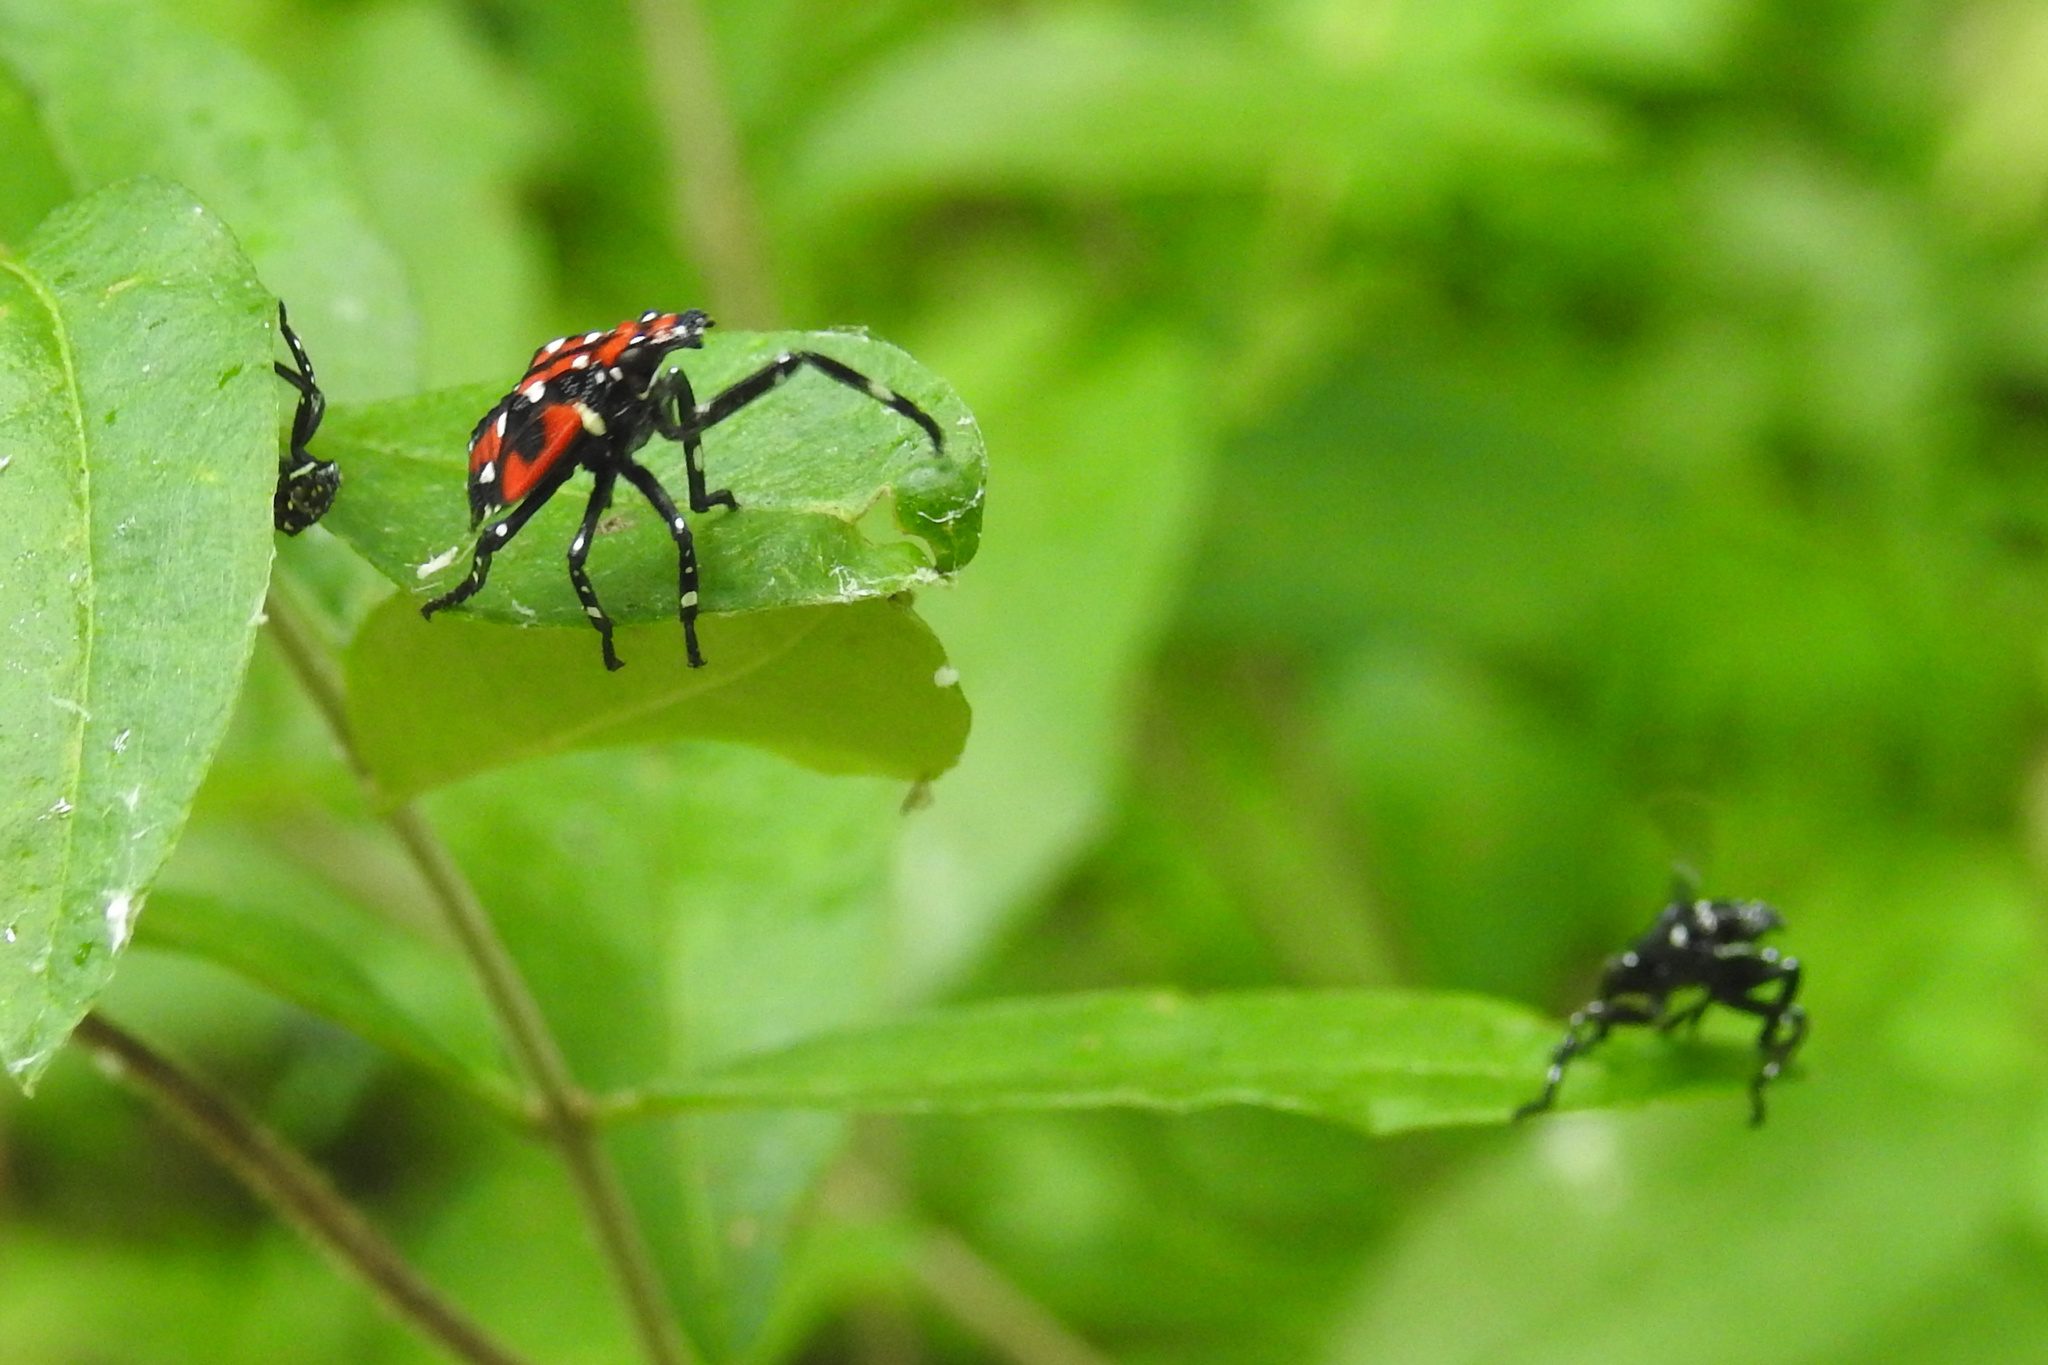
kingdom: Animalia
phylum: Arthropoda
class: Insecta
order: Hemiptera
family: Fulgoridae
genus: Lycorma
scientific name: Lycorma delicatula
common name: Spotted lanternfly
